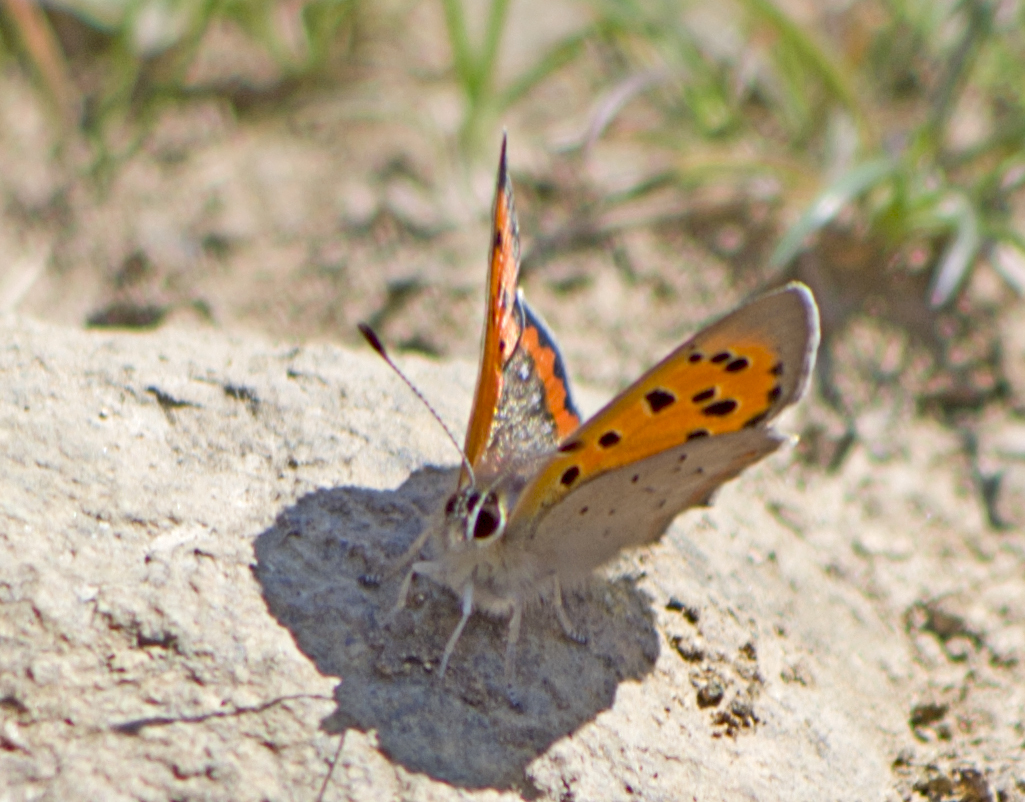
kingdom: Animalia
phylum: Arthropoda
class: Insecta
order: Lepidoptera
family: Lycaenidae
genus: Lycaena
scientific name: Lycaena phlaeas
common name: Small copper
